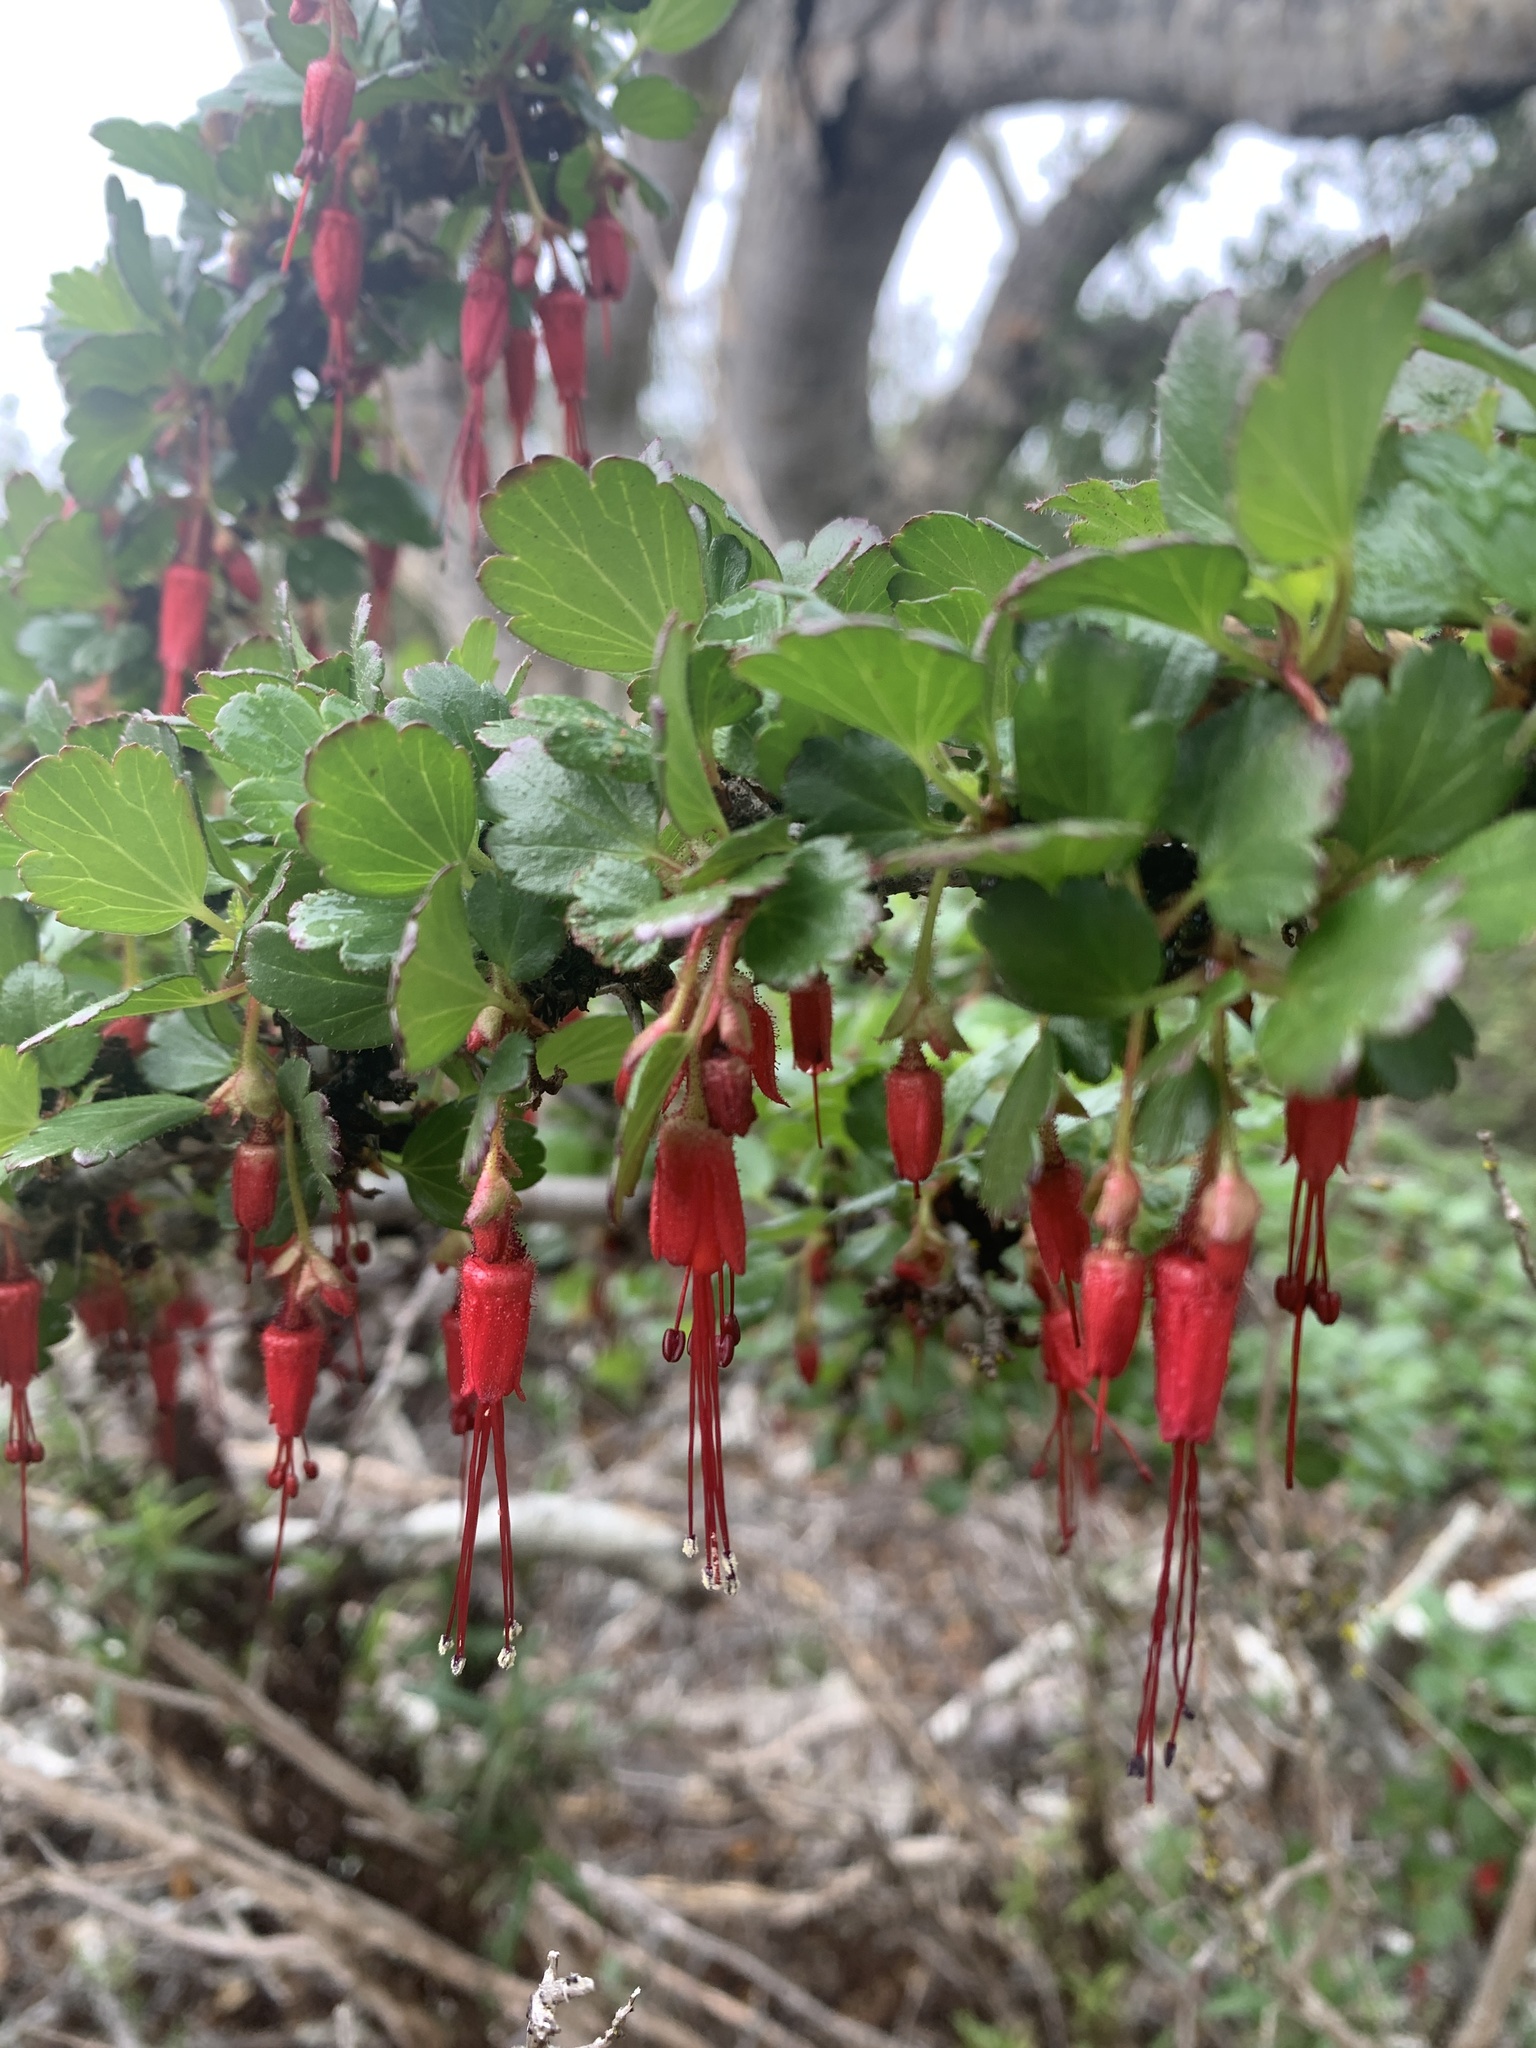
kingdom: Plantae
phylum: Tracheophyta
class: Magnoliopsida
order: Saxifragales
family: Grossulariaceae
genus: Ribes
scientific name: Ribes speciosum
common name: Fuchsia-flower gooseberry
